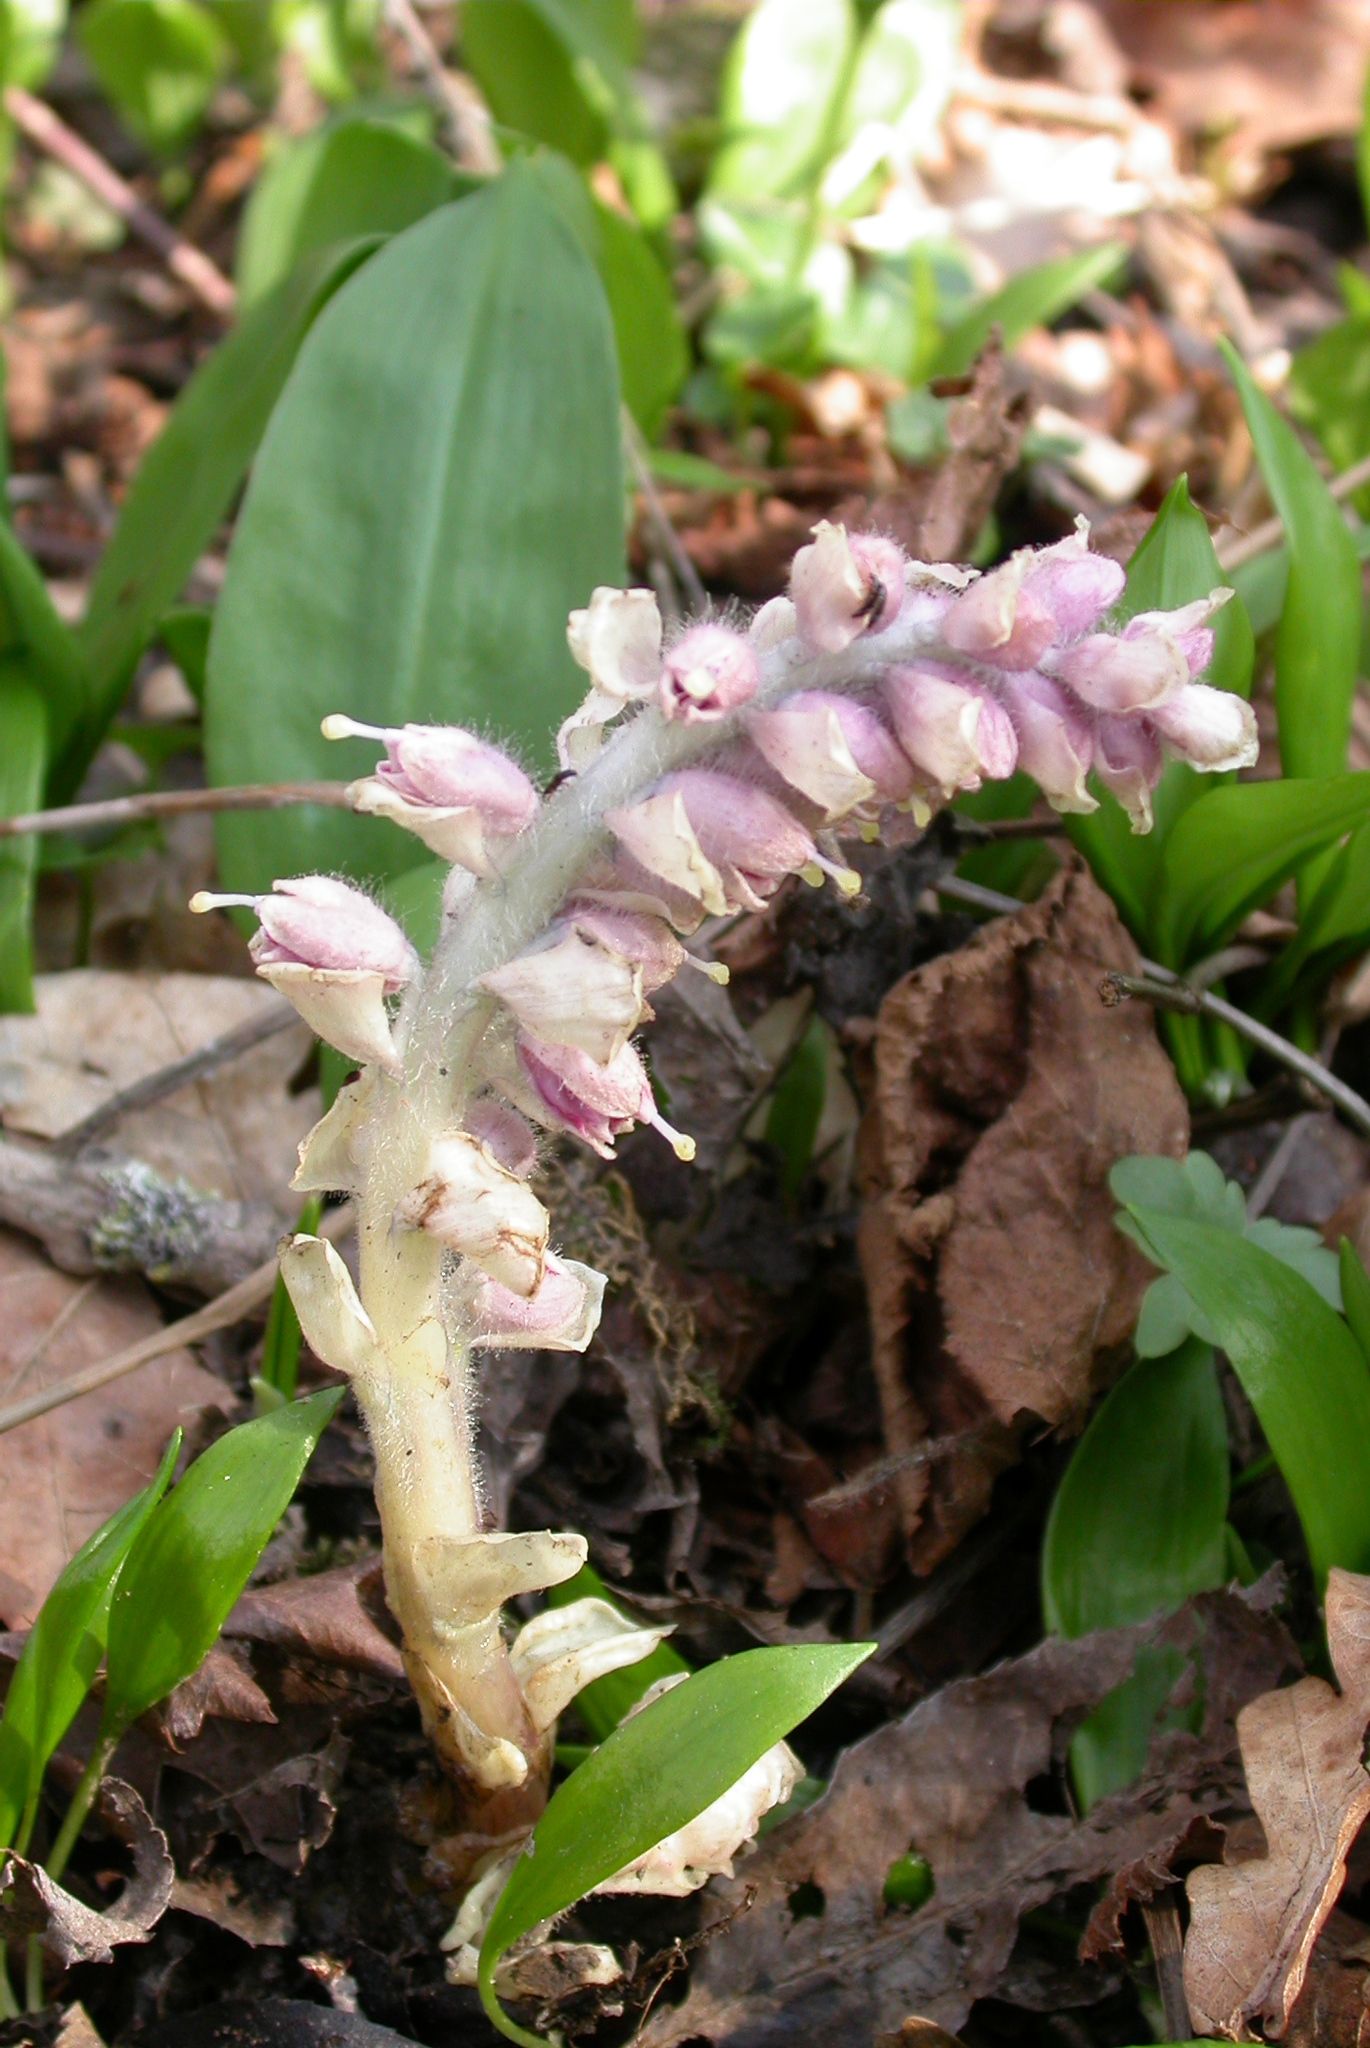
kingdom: Plantae
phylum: Tracheophyta
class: Magnoliopsida
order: Lamiales
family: Orobanchaceae
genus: Lathraea
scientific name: Lathraea squamaria
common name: Toothwort
